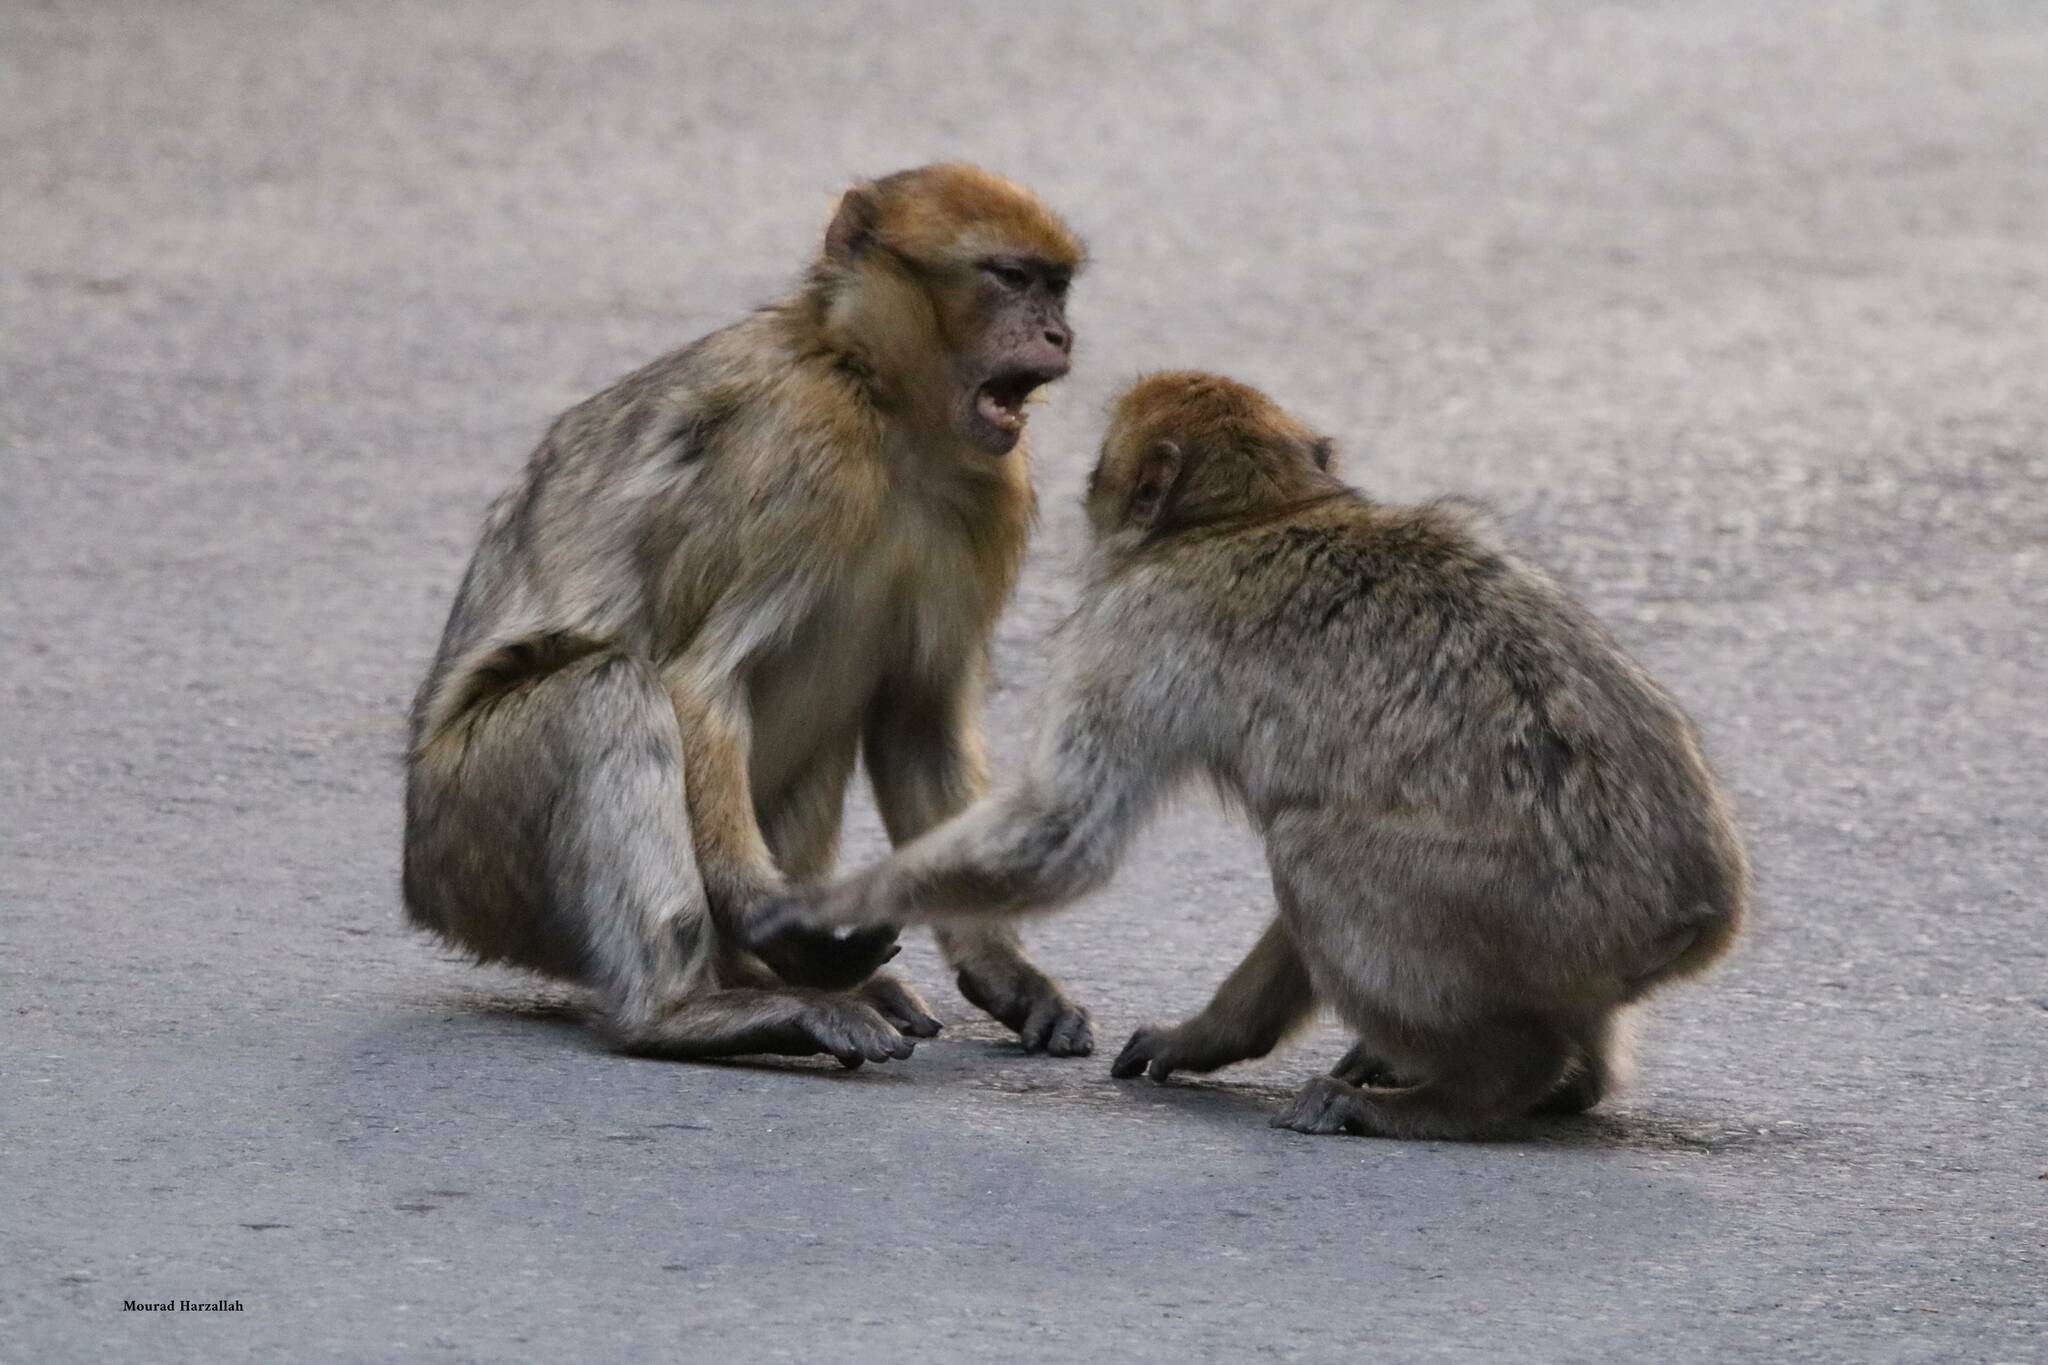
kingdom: Animalia
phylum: Chordata
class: Mammalia
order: Primates
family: Cercopithecidae
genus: Macaca
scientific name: Macaca sylvanus
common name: Barbary macaque
